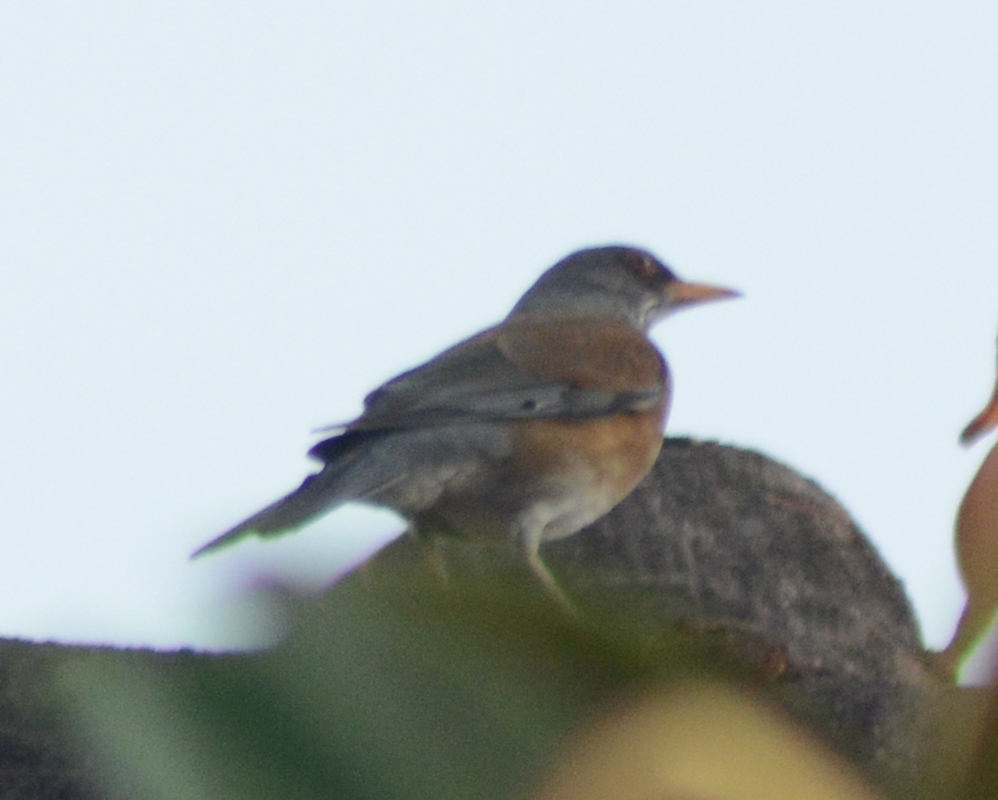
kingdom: Animalia
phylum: Chordata
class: Aves
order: Passeriformes
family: Turdidae
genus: Turdus
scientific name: Turdus rufopalliatus
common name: Rufous-backed robin
